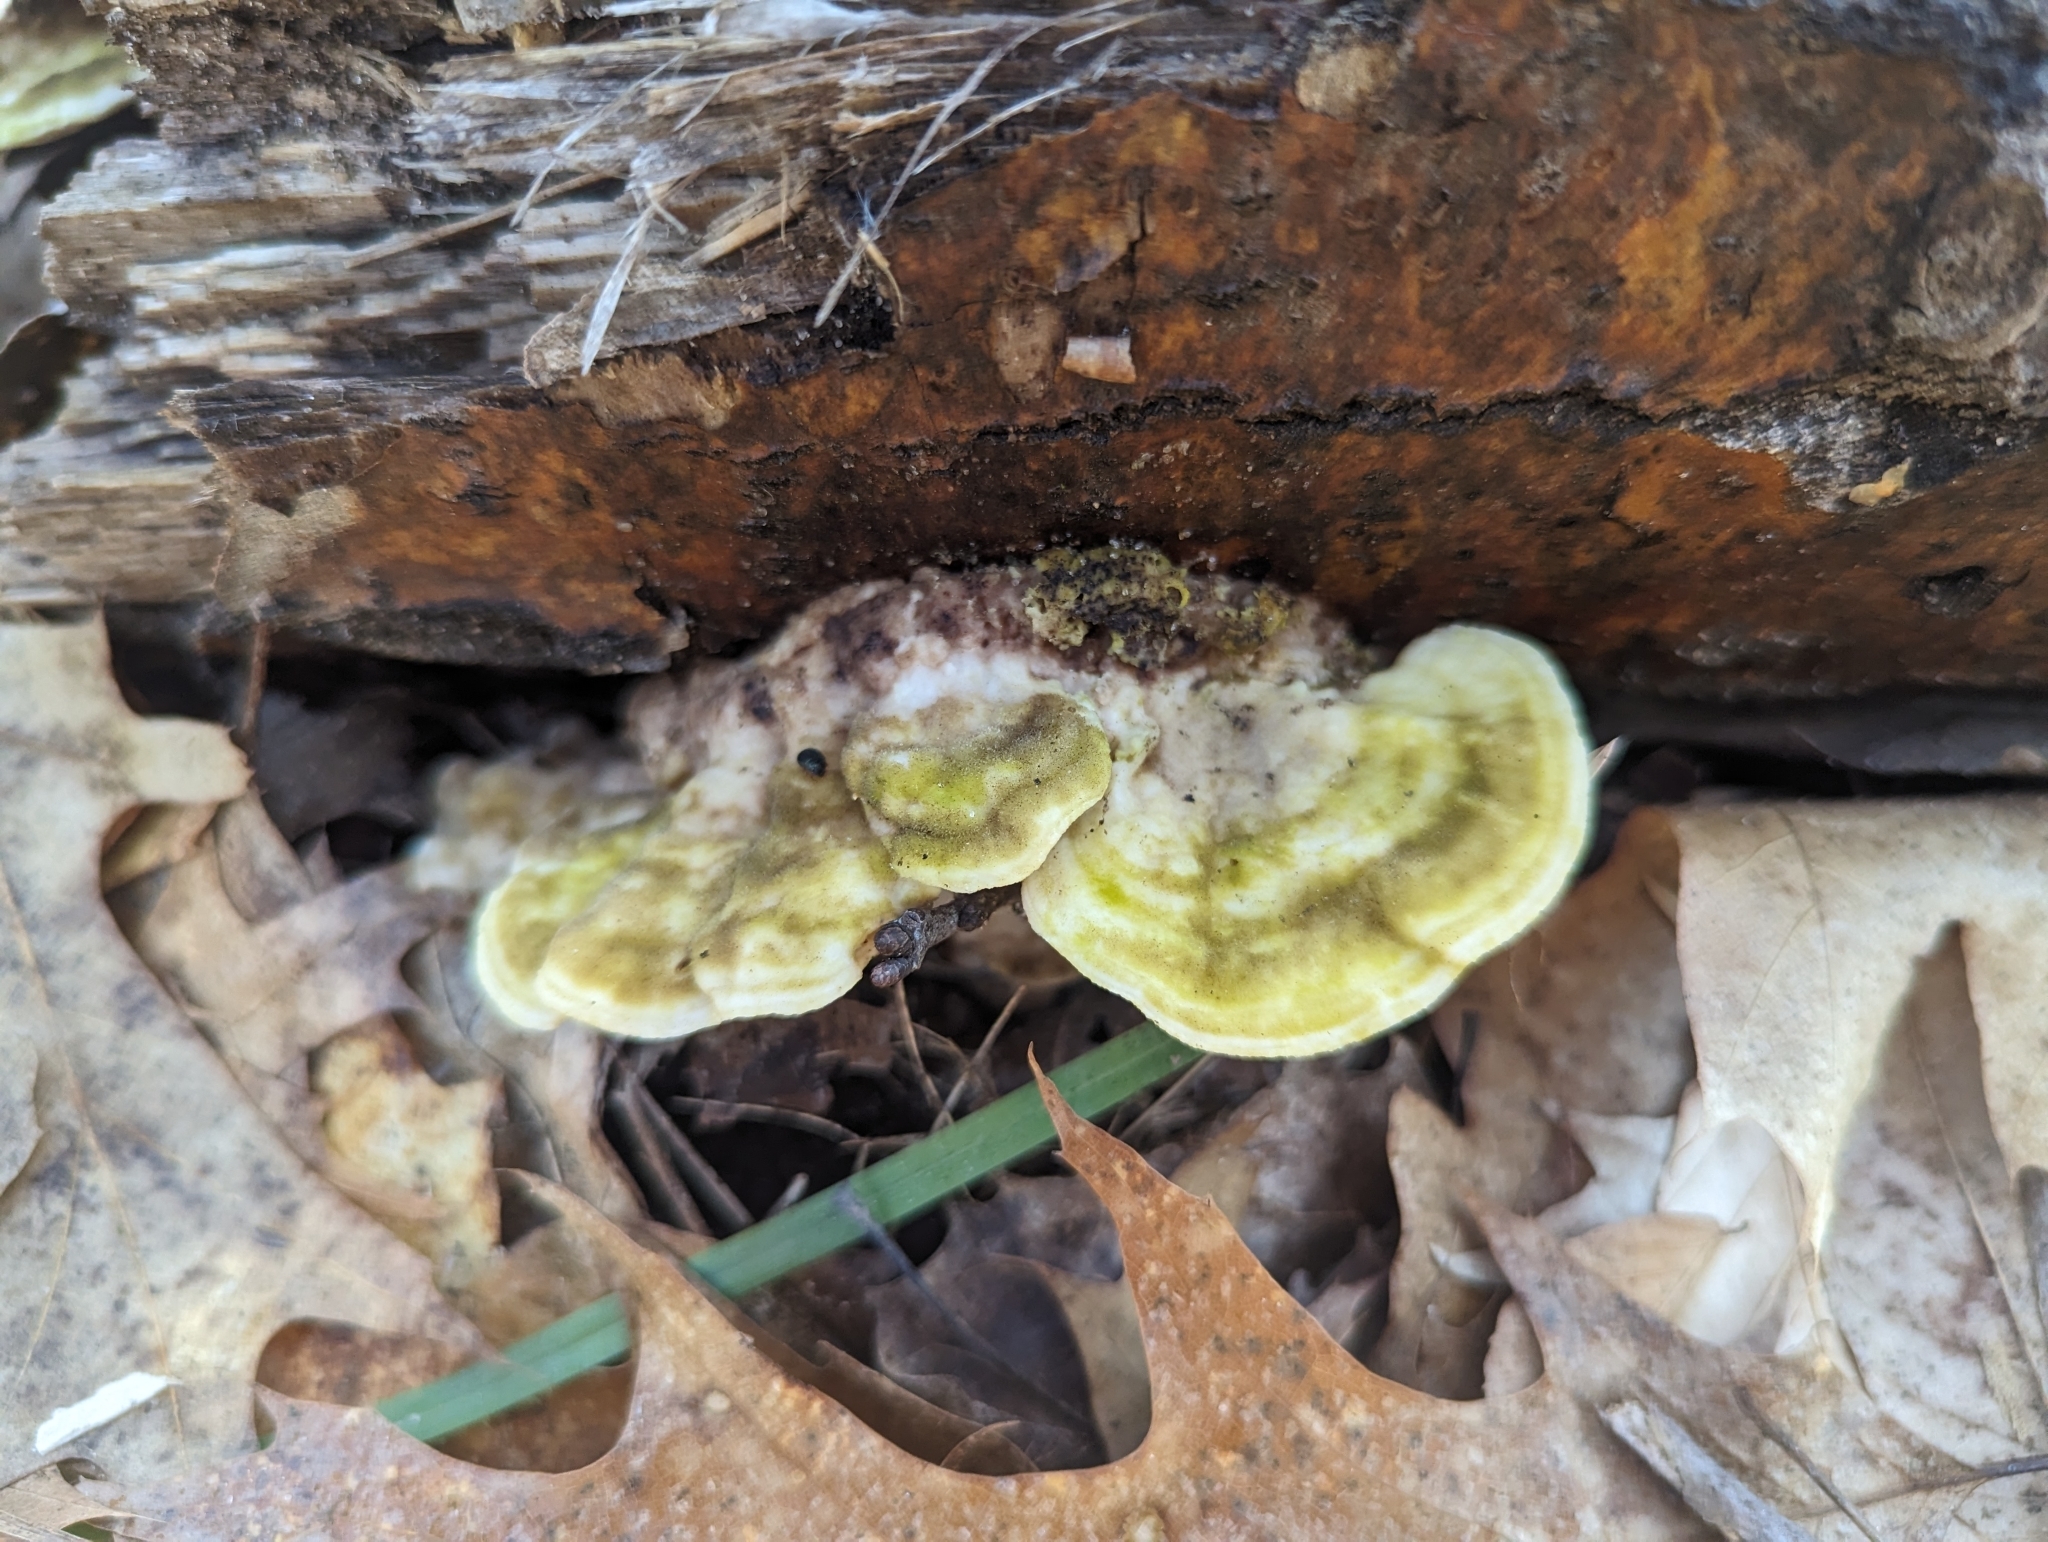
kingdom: Fungi
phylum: Basidiomycota
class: Agaricomycetes
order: Polyporales
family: Polyporaceae
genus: Trametes
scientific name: Trametes gibbosa
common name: Lumpy bracket
